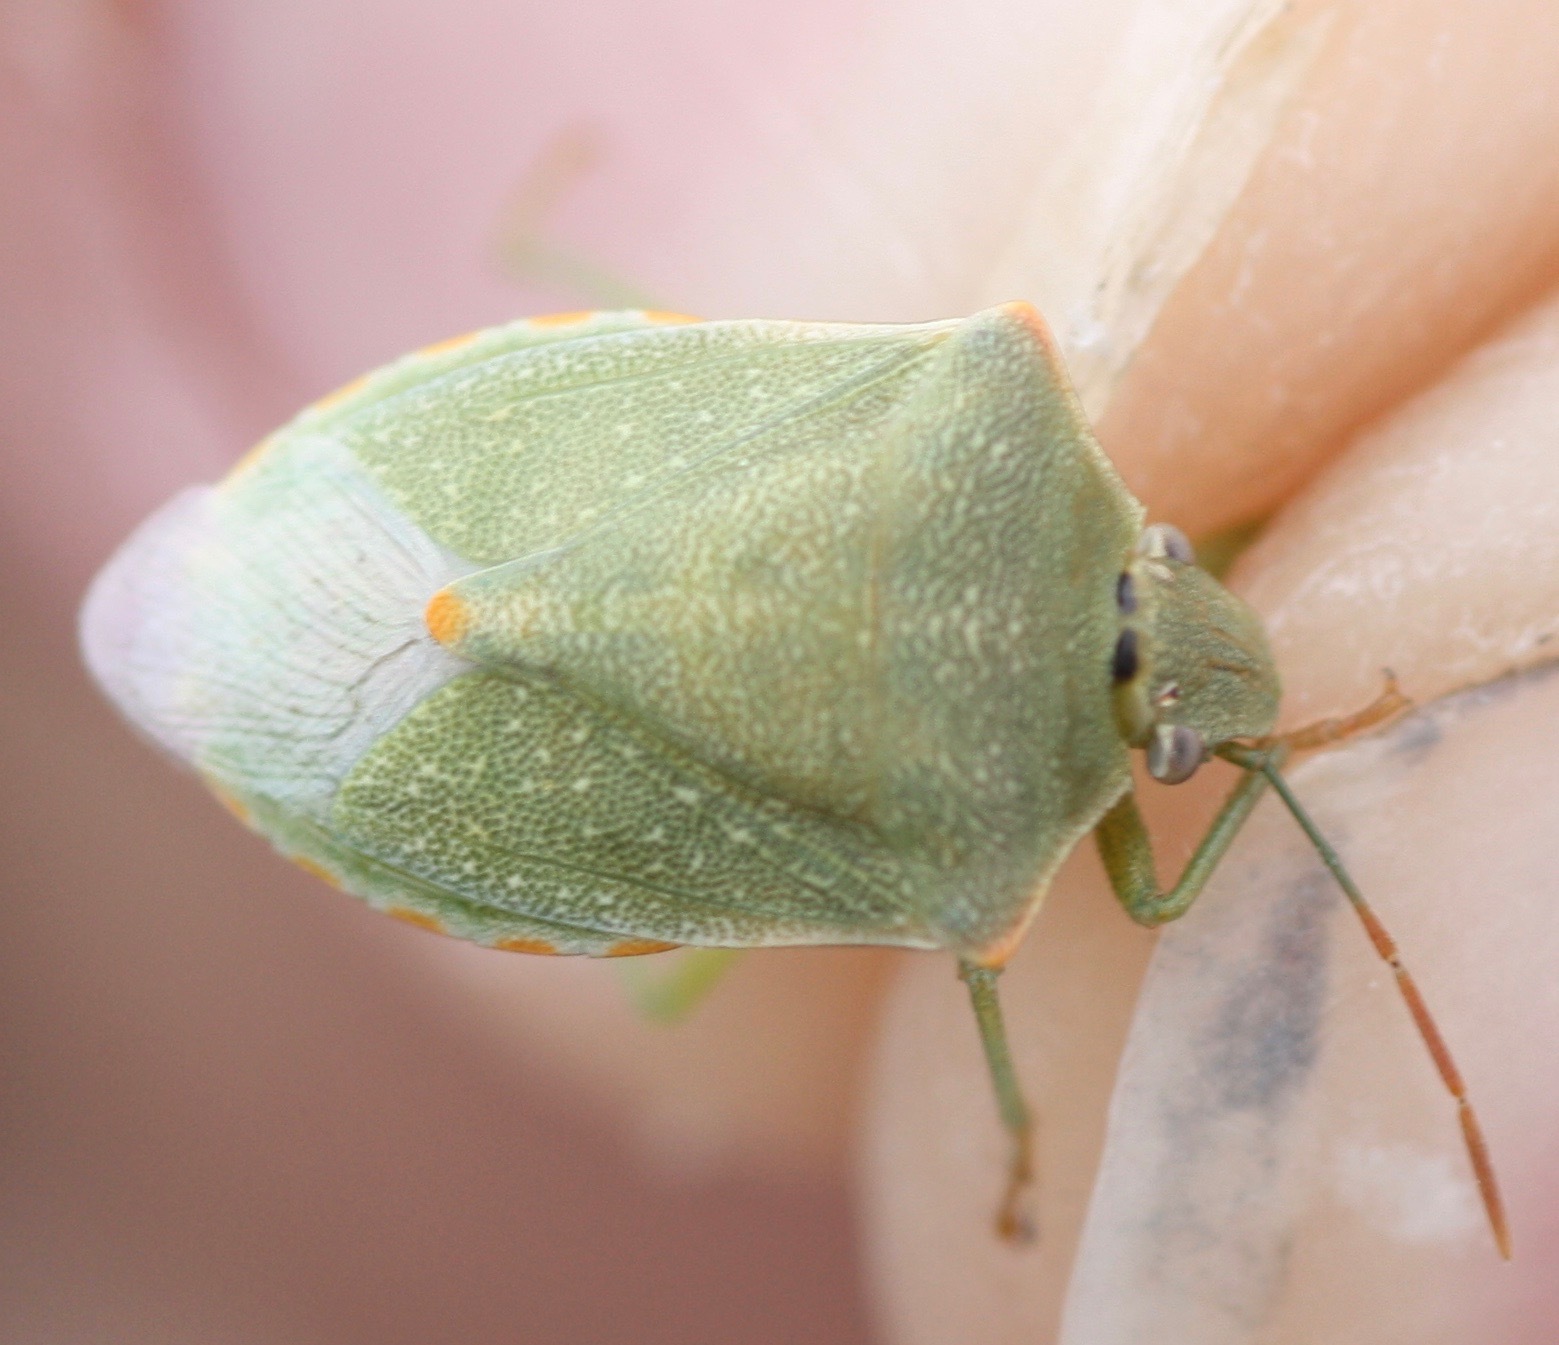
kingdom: Animalia
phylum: Arthropoda
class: Insecta
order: Hemiptera
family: Pentatomidae
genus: Thyanta
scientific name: Thyanta accerra
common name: Stink bug
